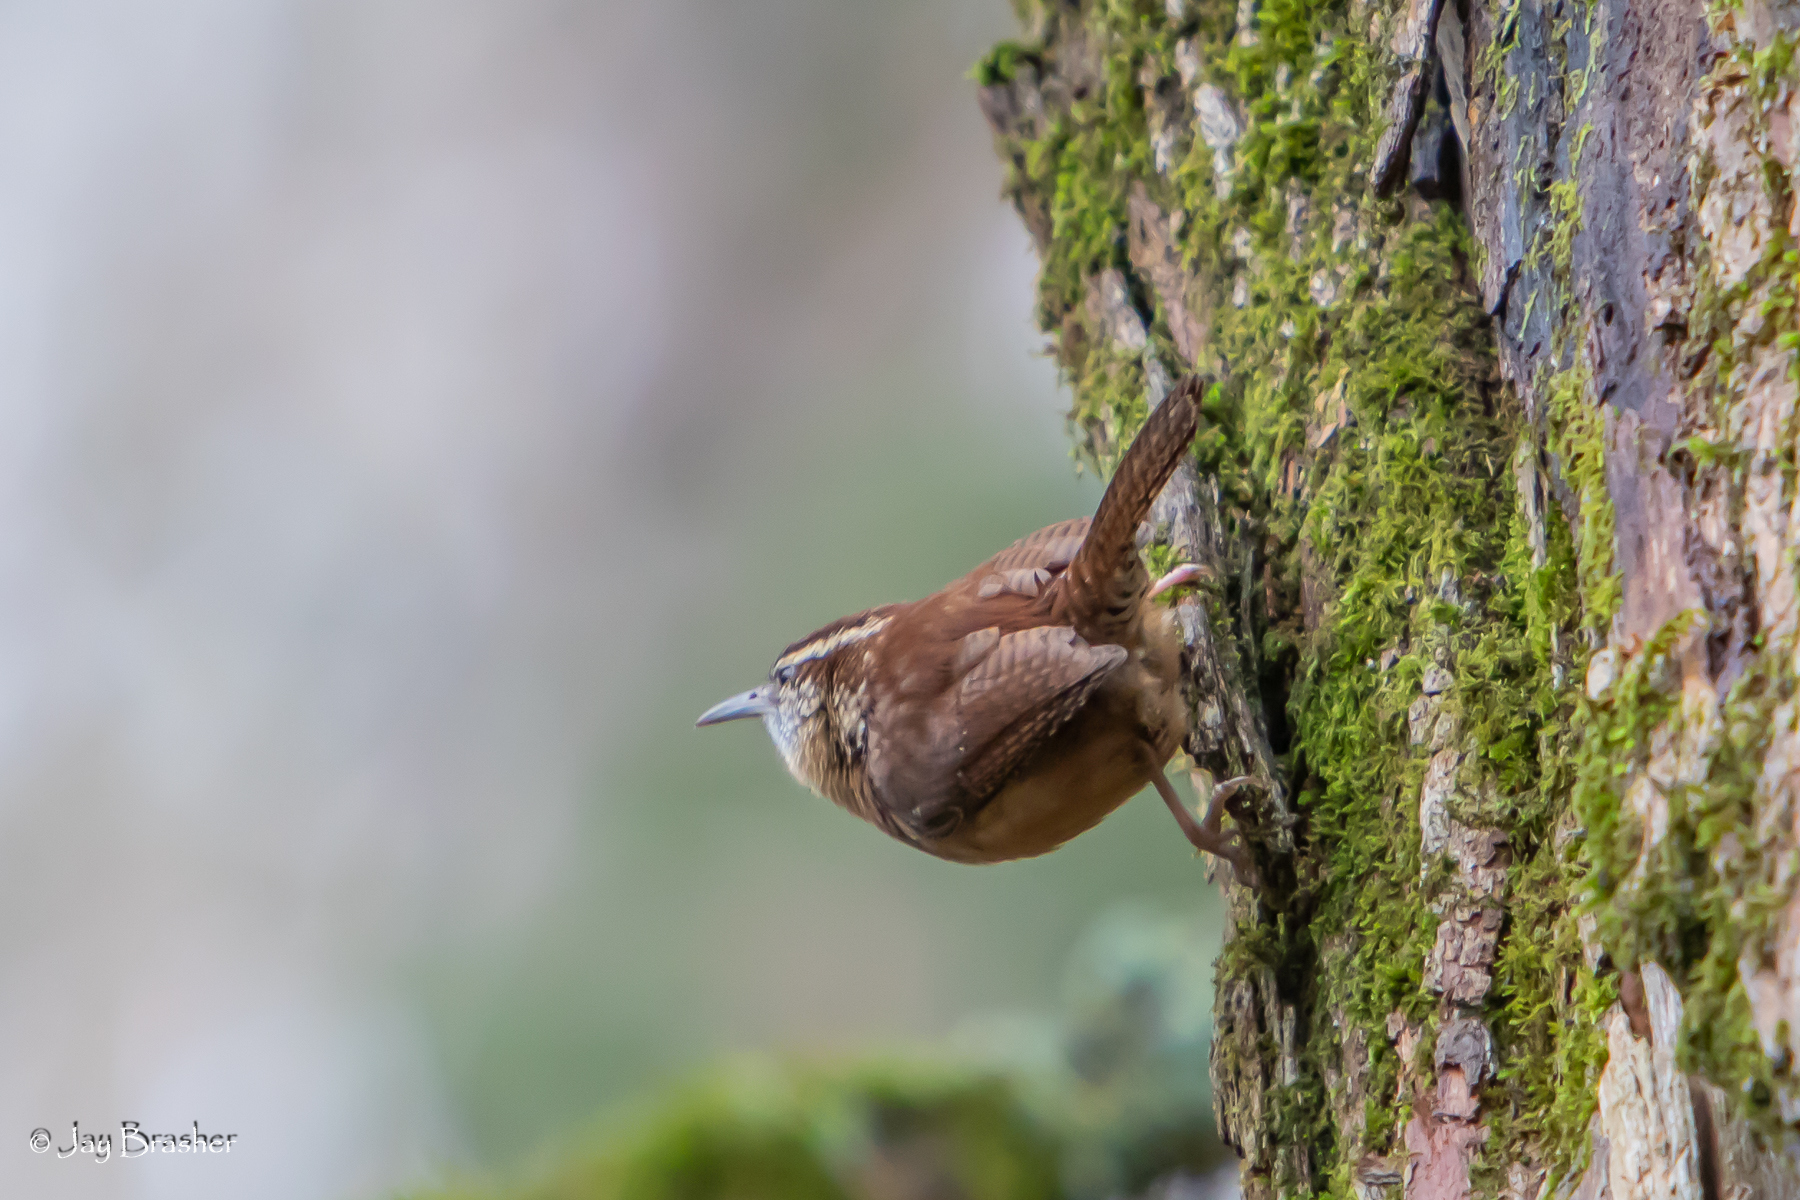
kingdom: Animalia
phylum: Chordata
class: Aves
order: Passeriformes
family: Troglodytidae
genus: Thryothorus
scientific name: Thryothorus ludovicianus
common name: Carolina wren
